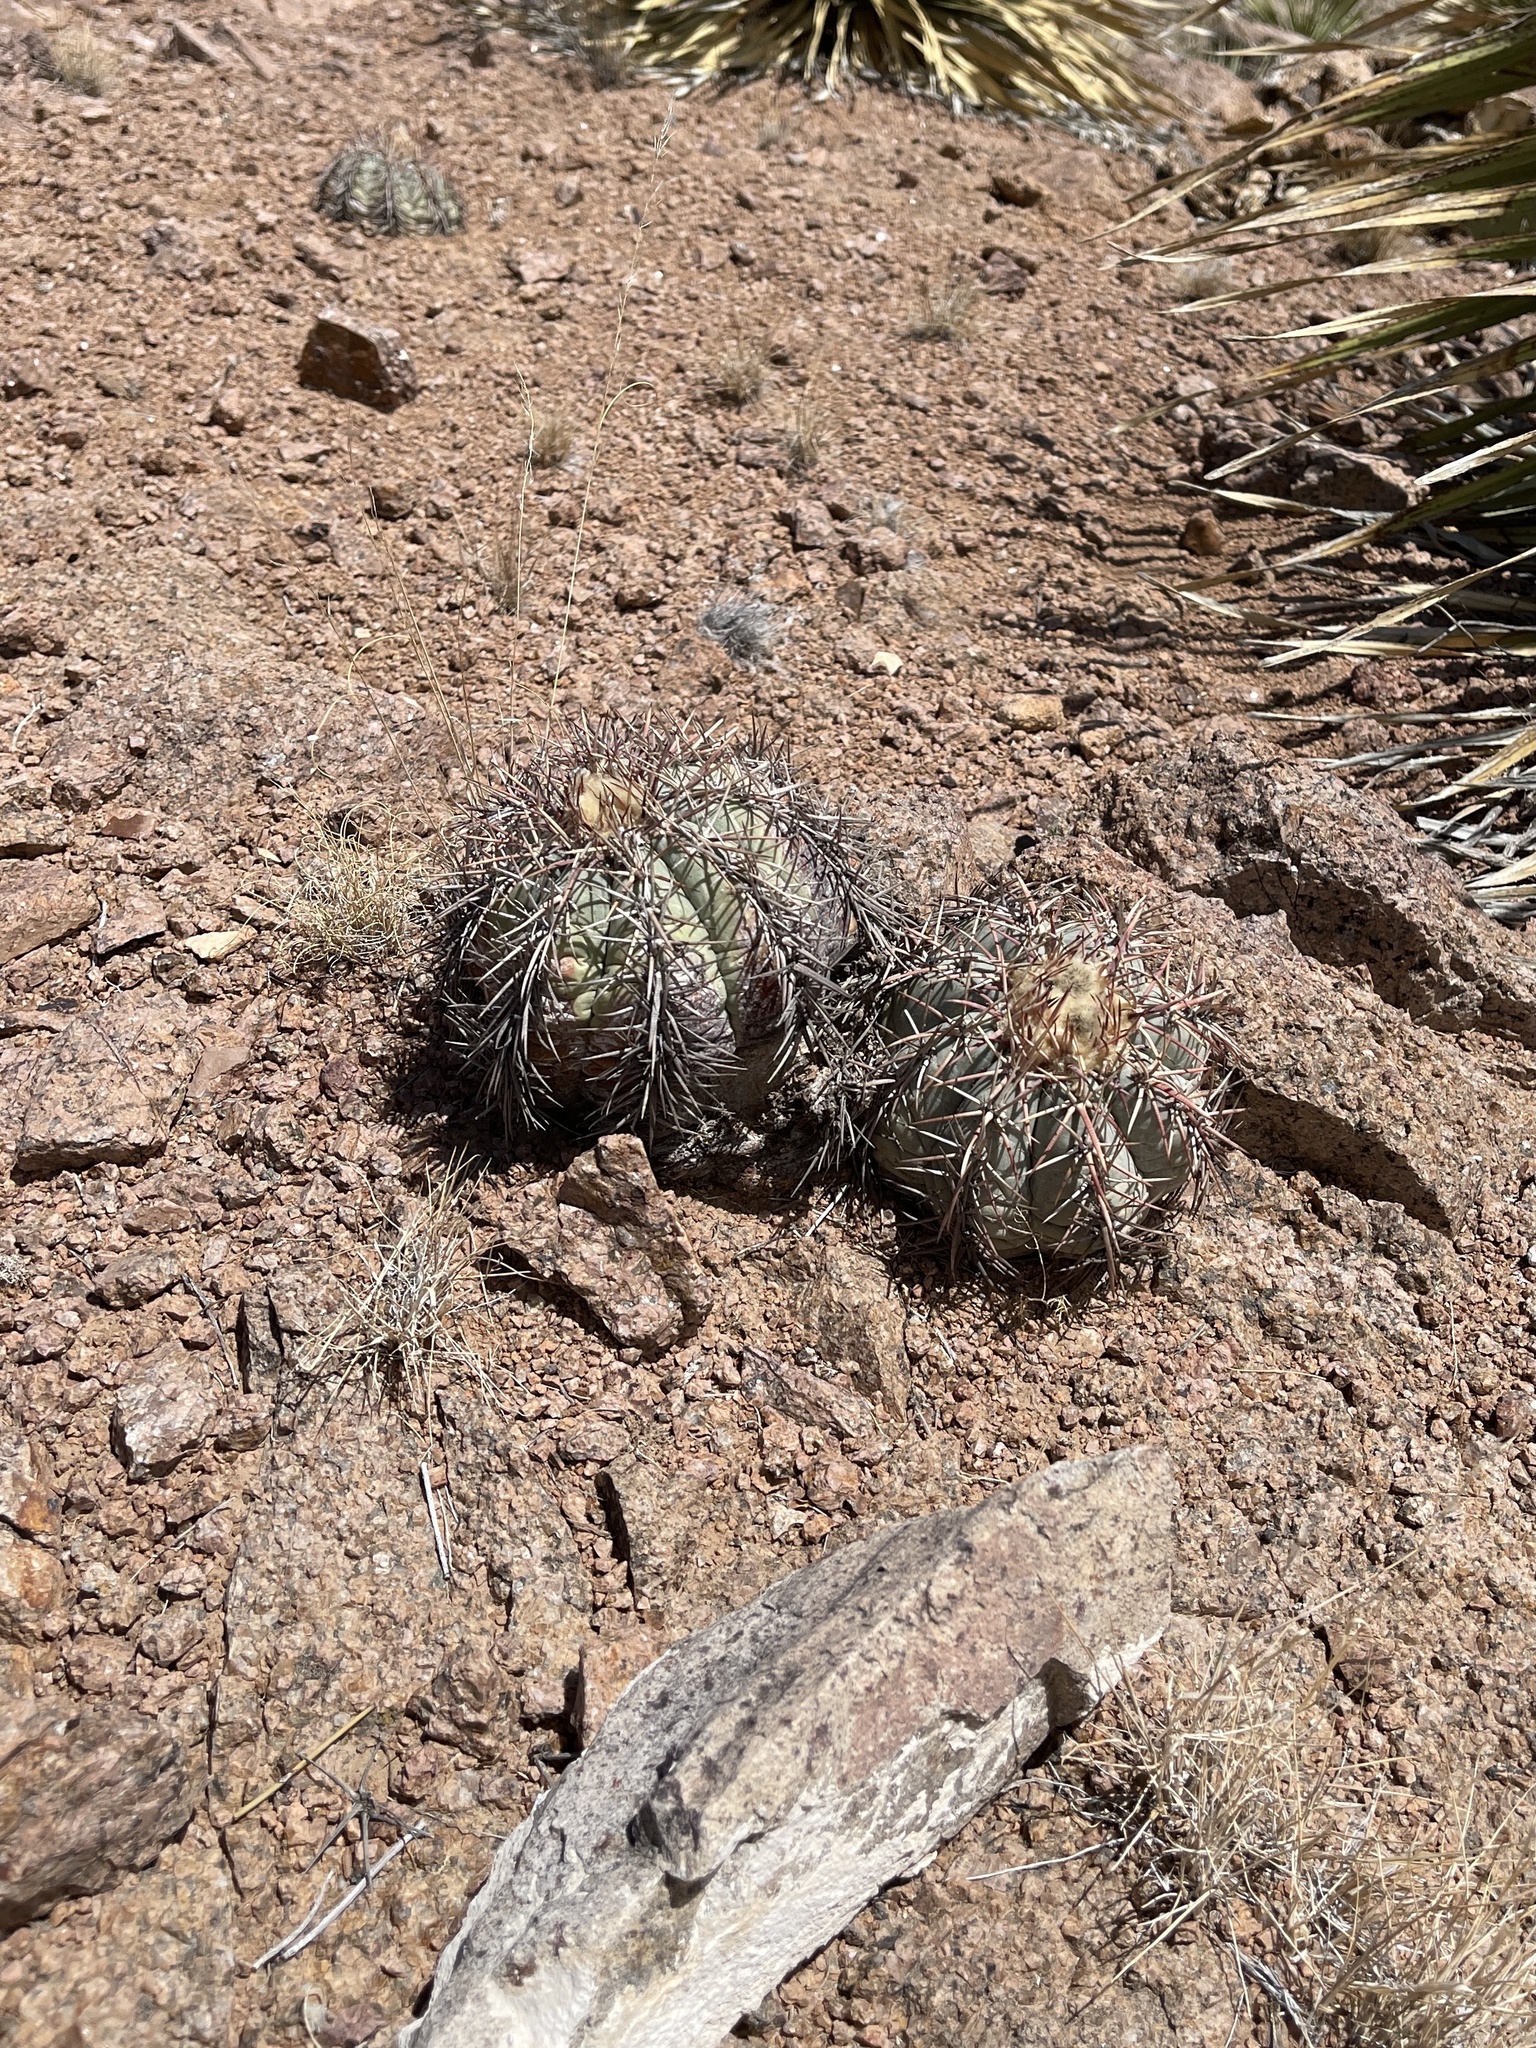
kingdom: Plantae
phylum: Tracheophyta
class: Magnoliopsida
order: Caryophyllales
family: Cactaceae
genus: Echinocactus
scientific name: Echinocactus horizonthalonius
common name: Devilshead
